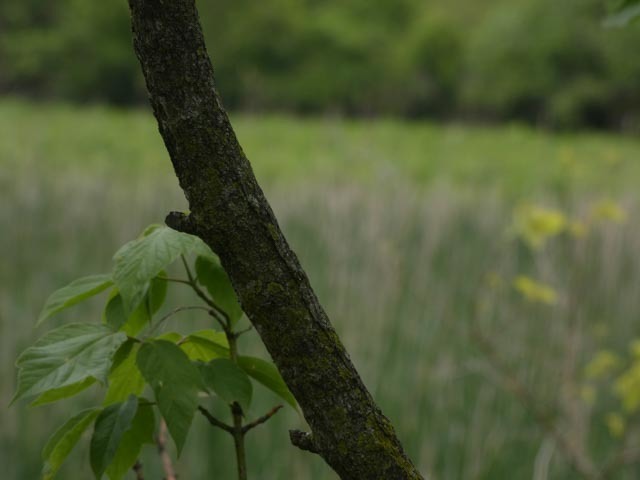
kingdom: Plantae
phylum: Tracheophyta
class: Magnoliopsida
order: Sapindales
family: Sapindaceae
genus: Acer
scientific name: Acer negundo
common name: Ashleaf maple
